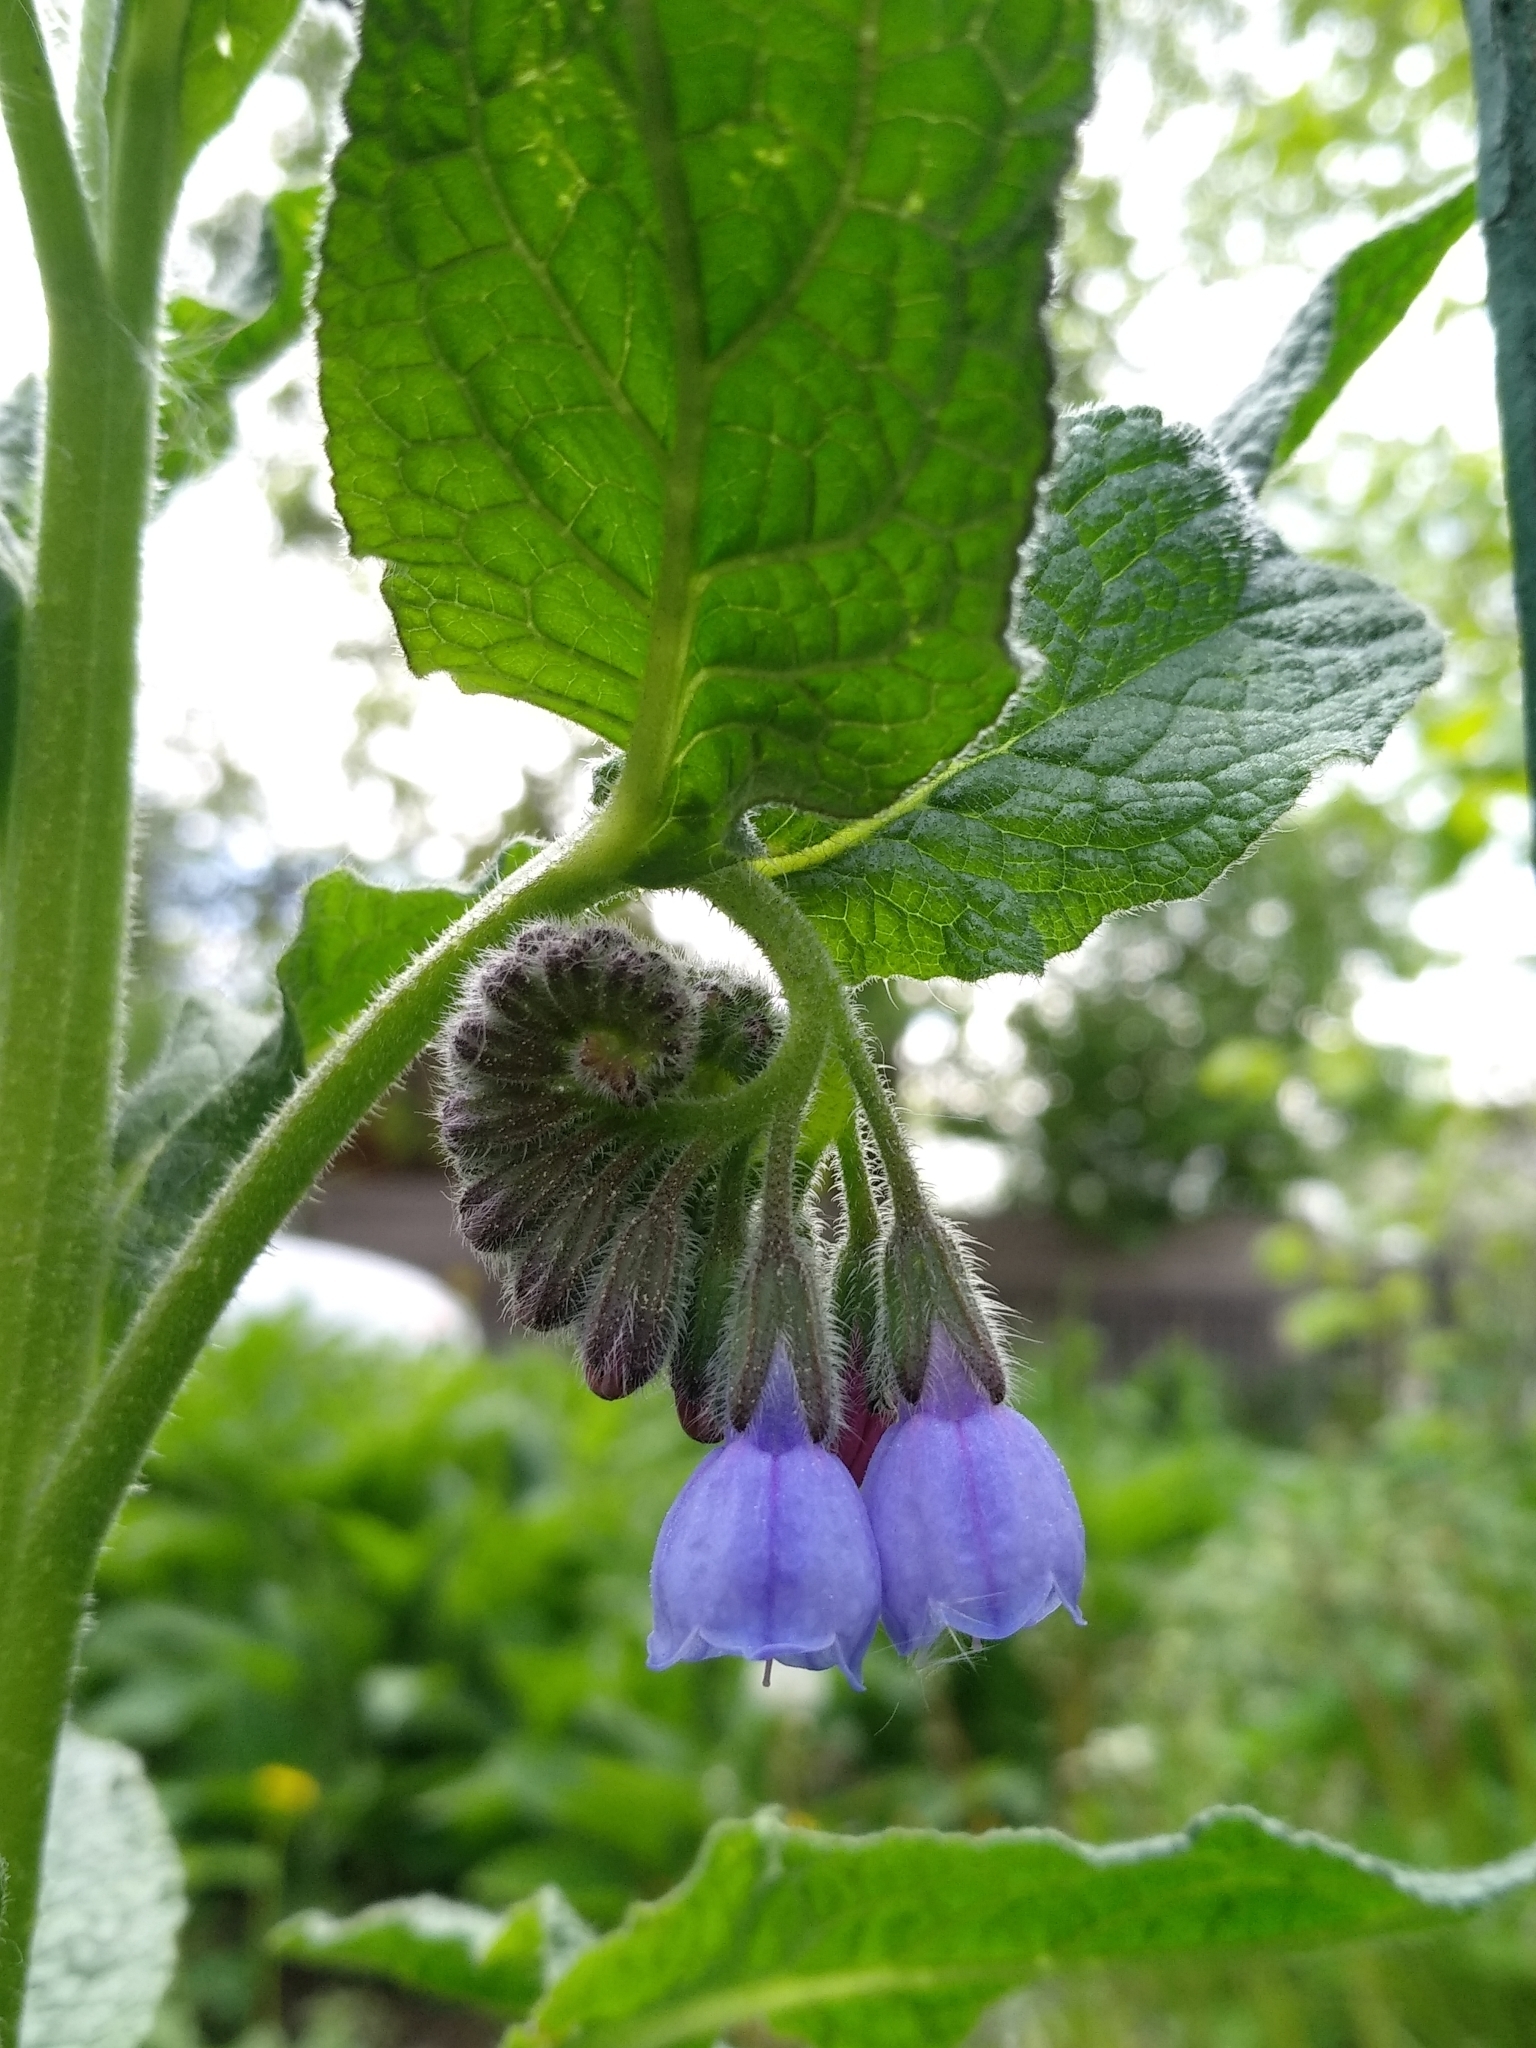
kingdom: Plantae
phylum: Tracheophyta
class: Magnoliopsida
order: Boraginales
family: Boraginaceae
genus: Symphytum
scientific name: Symphytum mosquense
